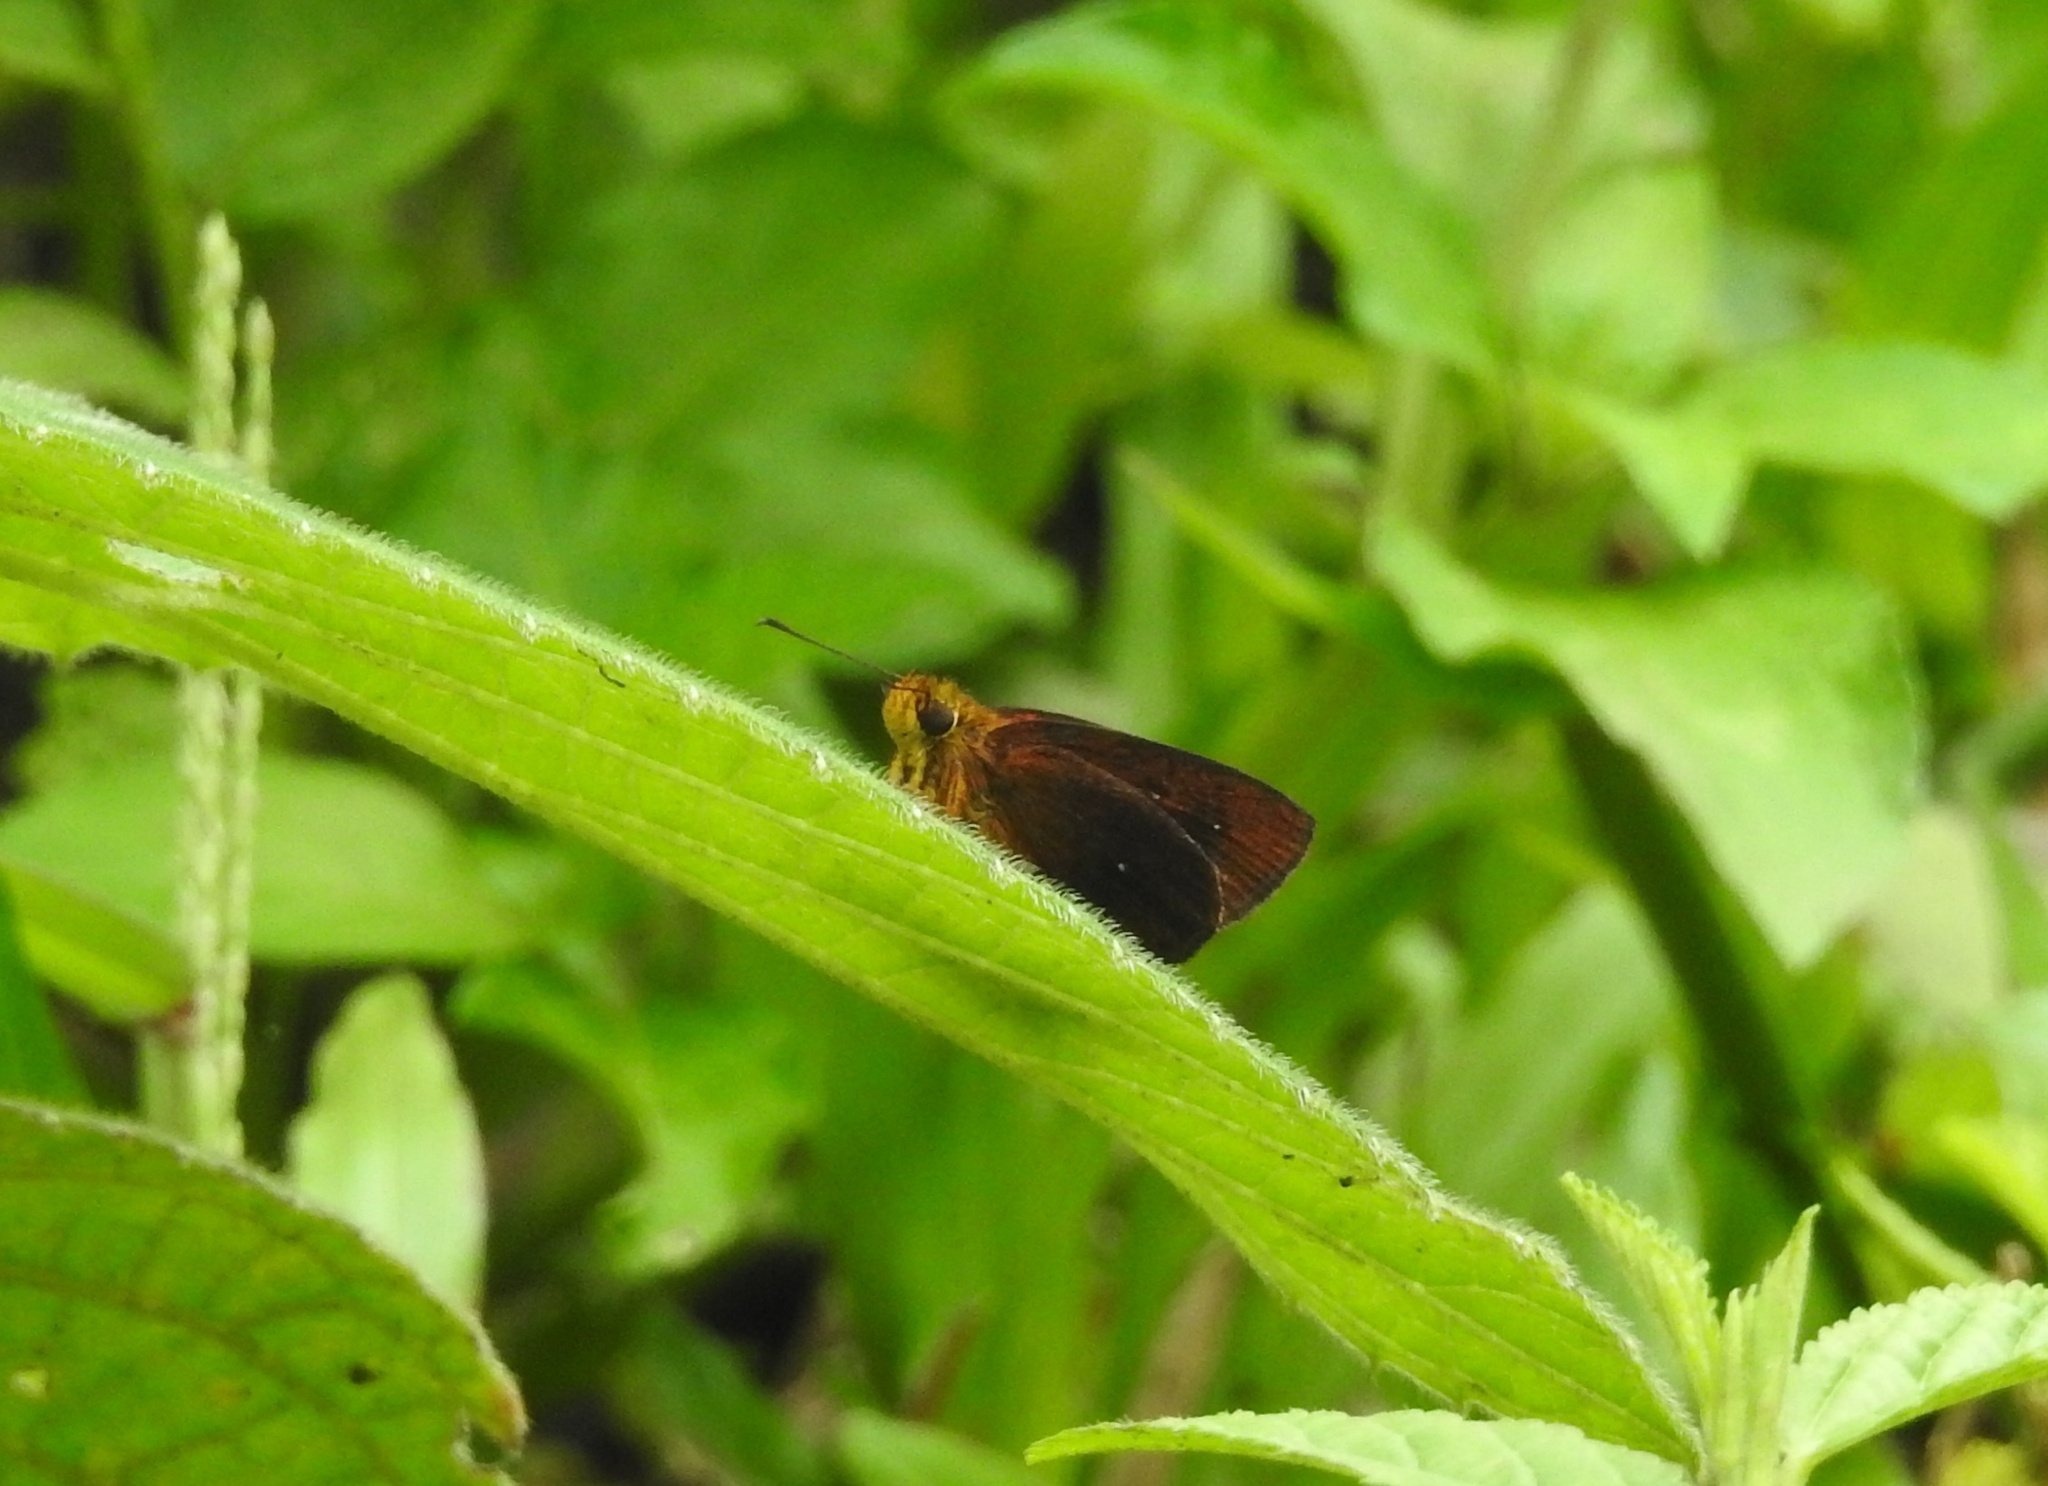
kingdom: Animalia
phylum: Arthropoda
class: Insecta
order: Lepidoptera
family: Hesperiidae
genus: Iambrix
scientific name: Iambrix salsala
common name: Chestnut bob
